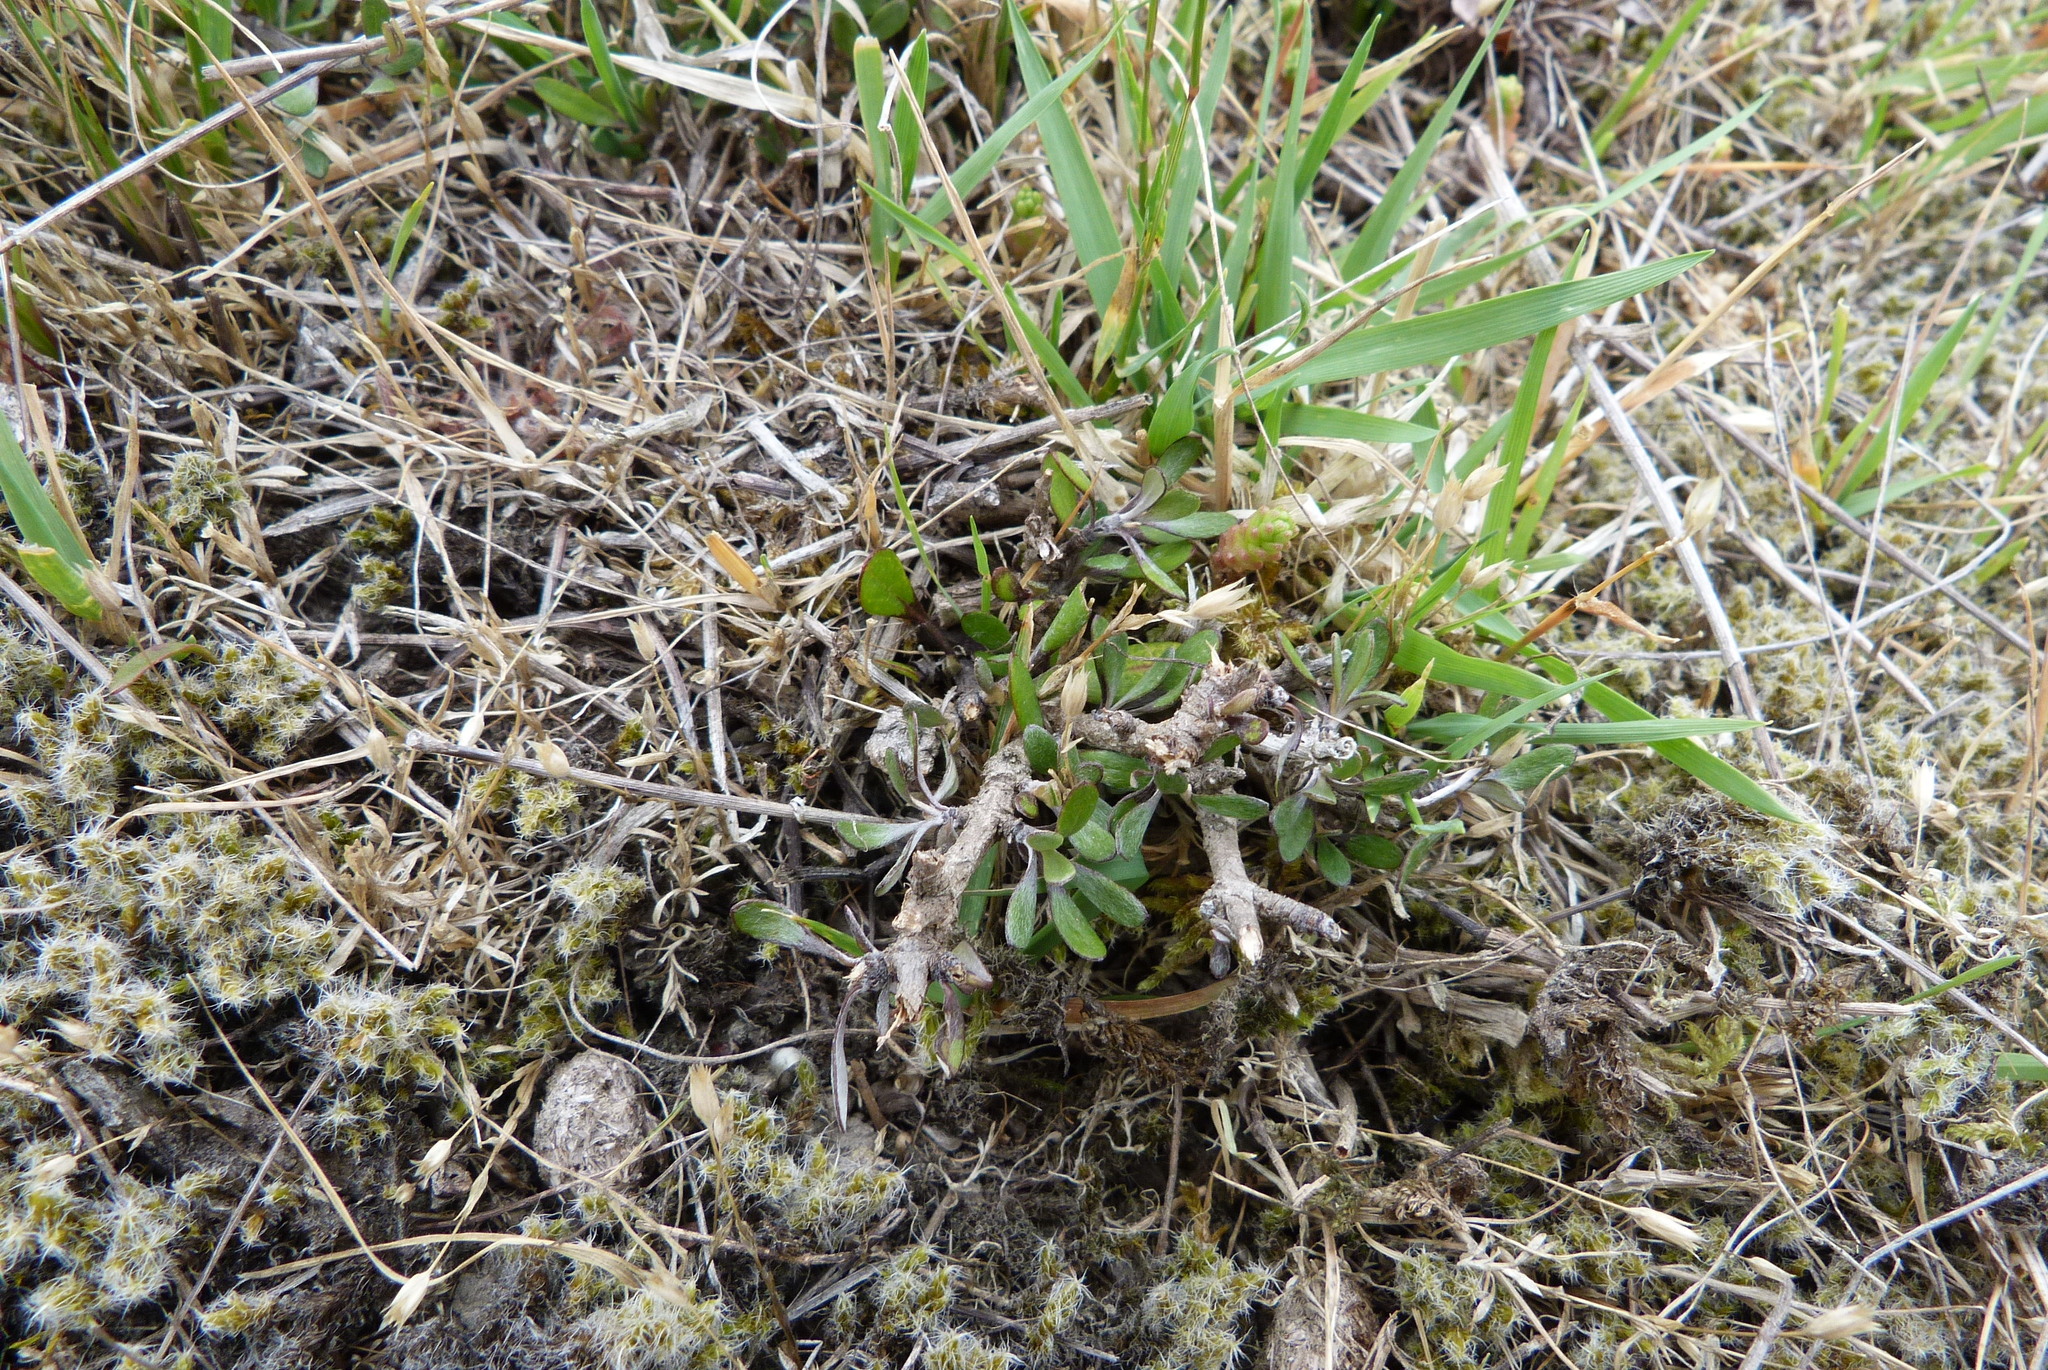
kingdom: Plantae
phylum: Tracheophyta
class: Magnoliopsida
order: Asterales
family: Asteraceae
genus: Olearia
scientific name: Olearia adenocarpa
